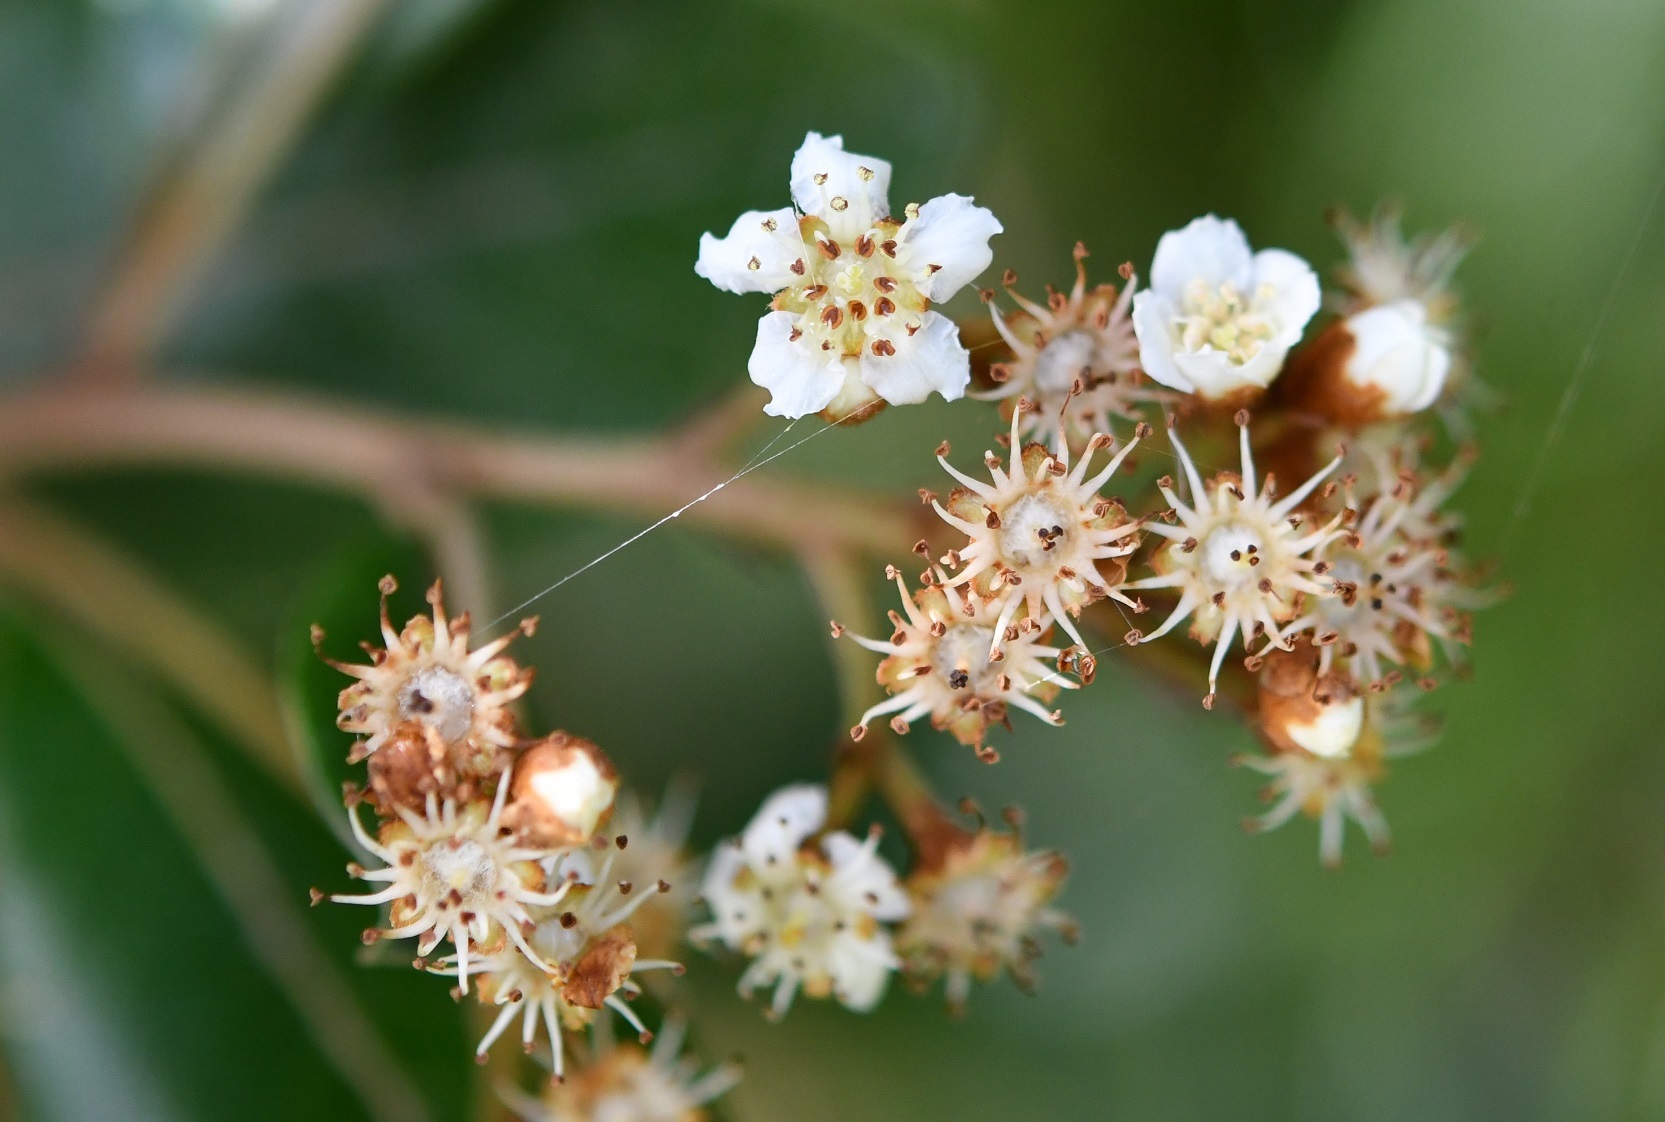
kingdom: Plantae
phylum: Tracheophyta
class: Magnoliopsida
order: Rosales
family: Rosaceae
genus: Phippsiomeles
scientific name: Phippsiomeles matudae
